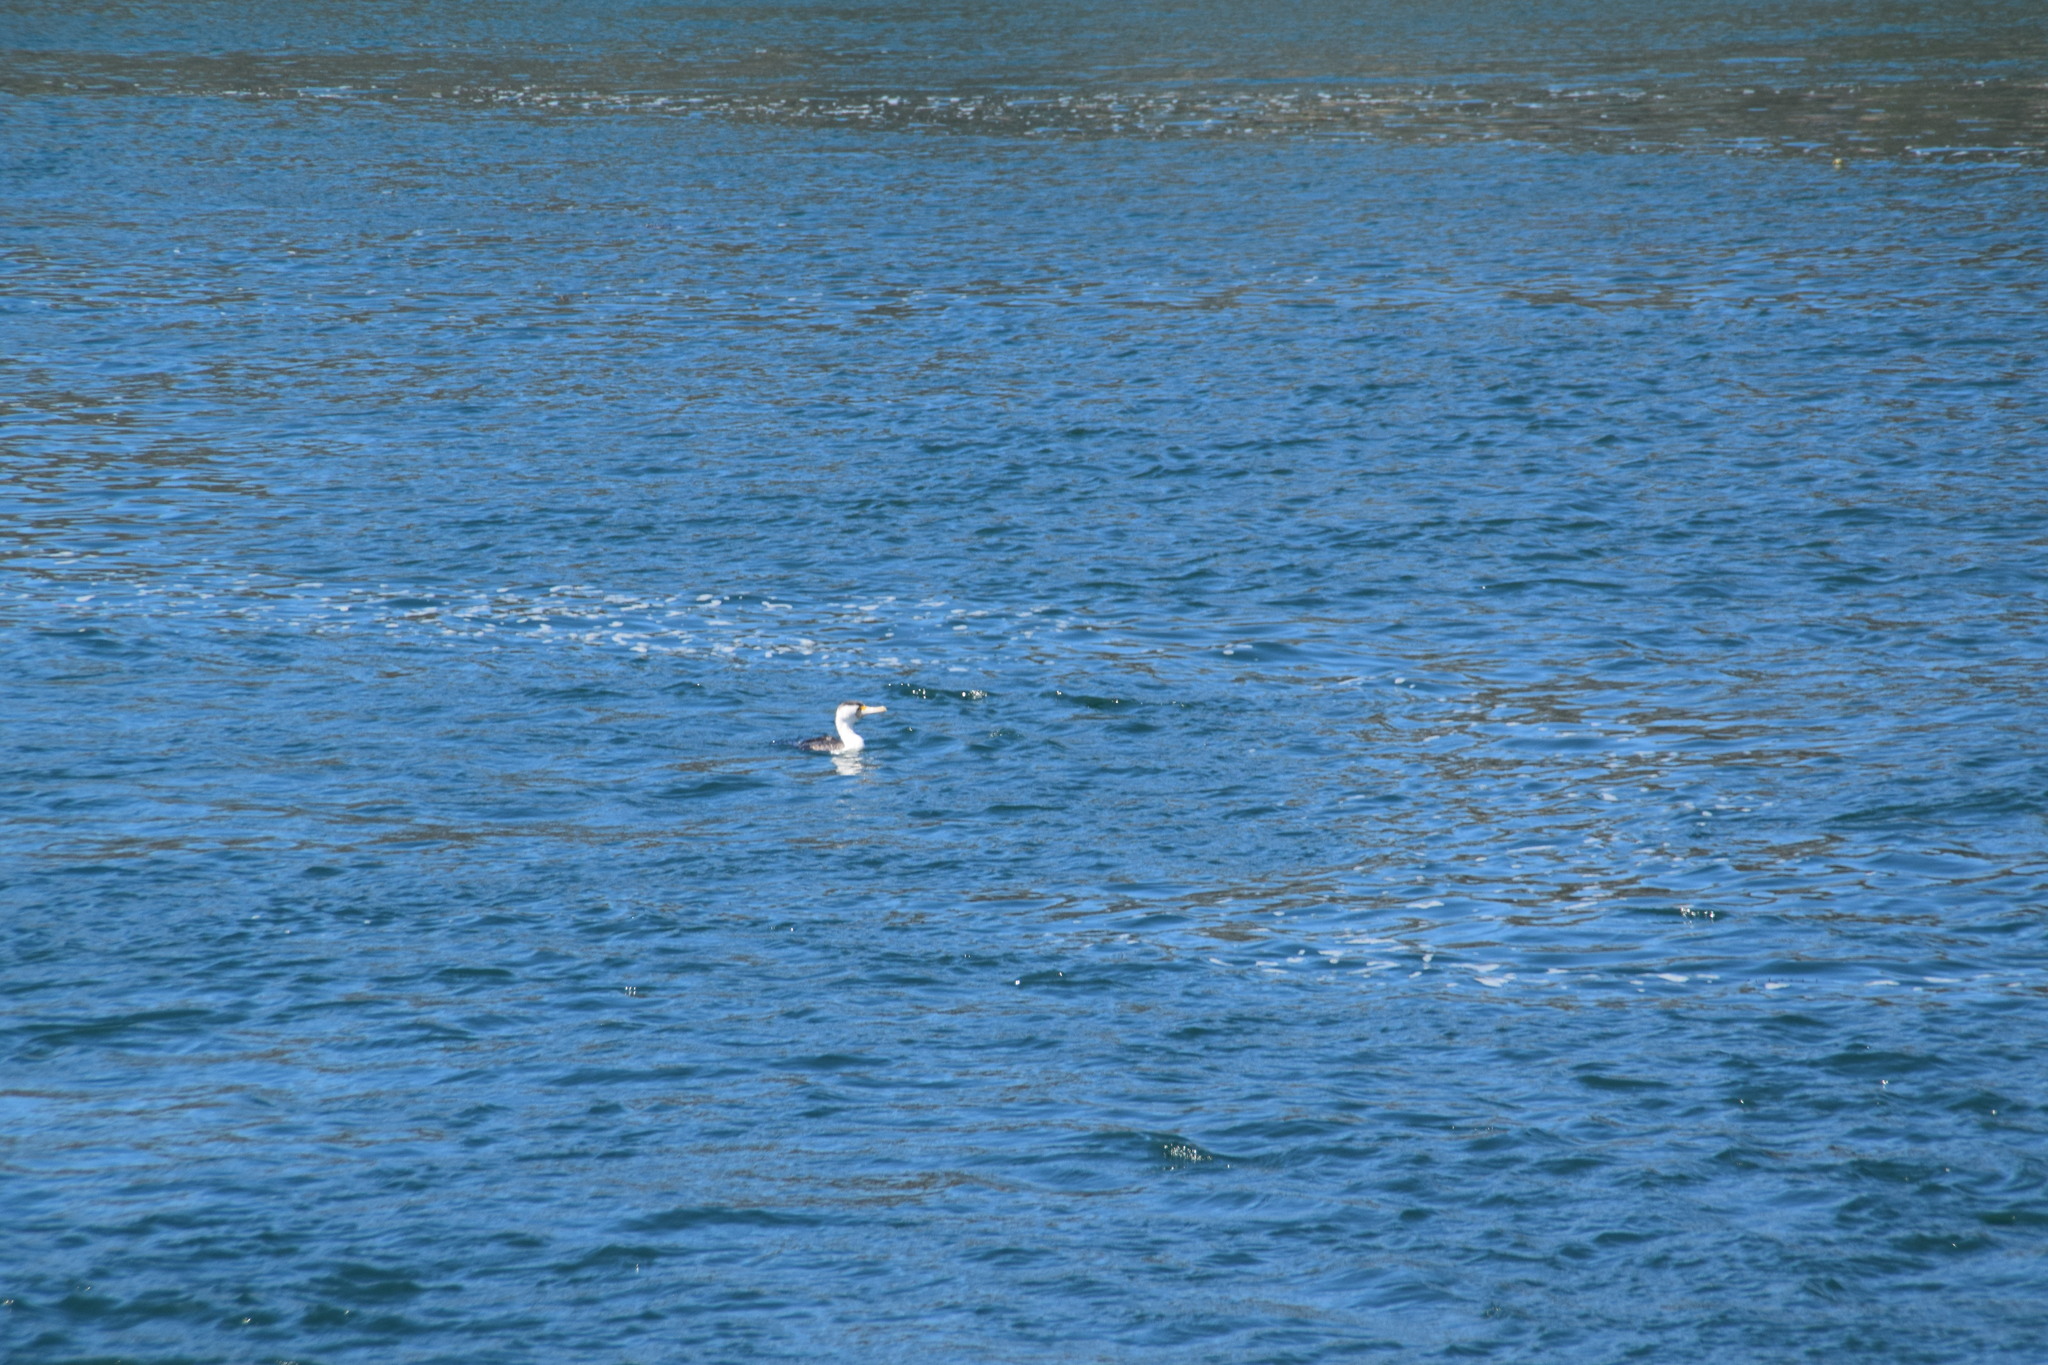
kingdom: Animalia
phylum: Chordata
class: Aves
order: Suliformes
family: Phalacrocoracidae
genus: Phalacrocorax
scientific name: Phalacrocorax varius
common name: Pied cormorant
